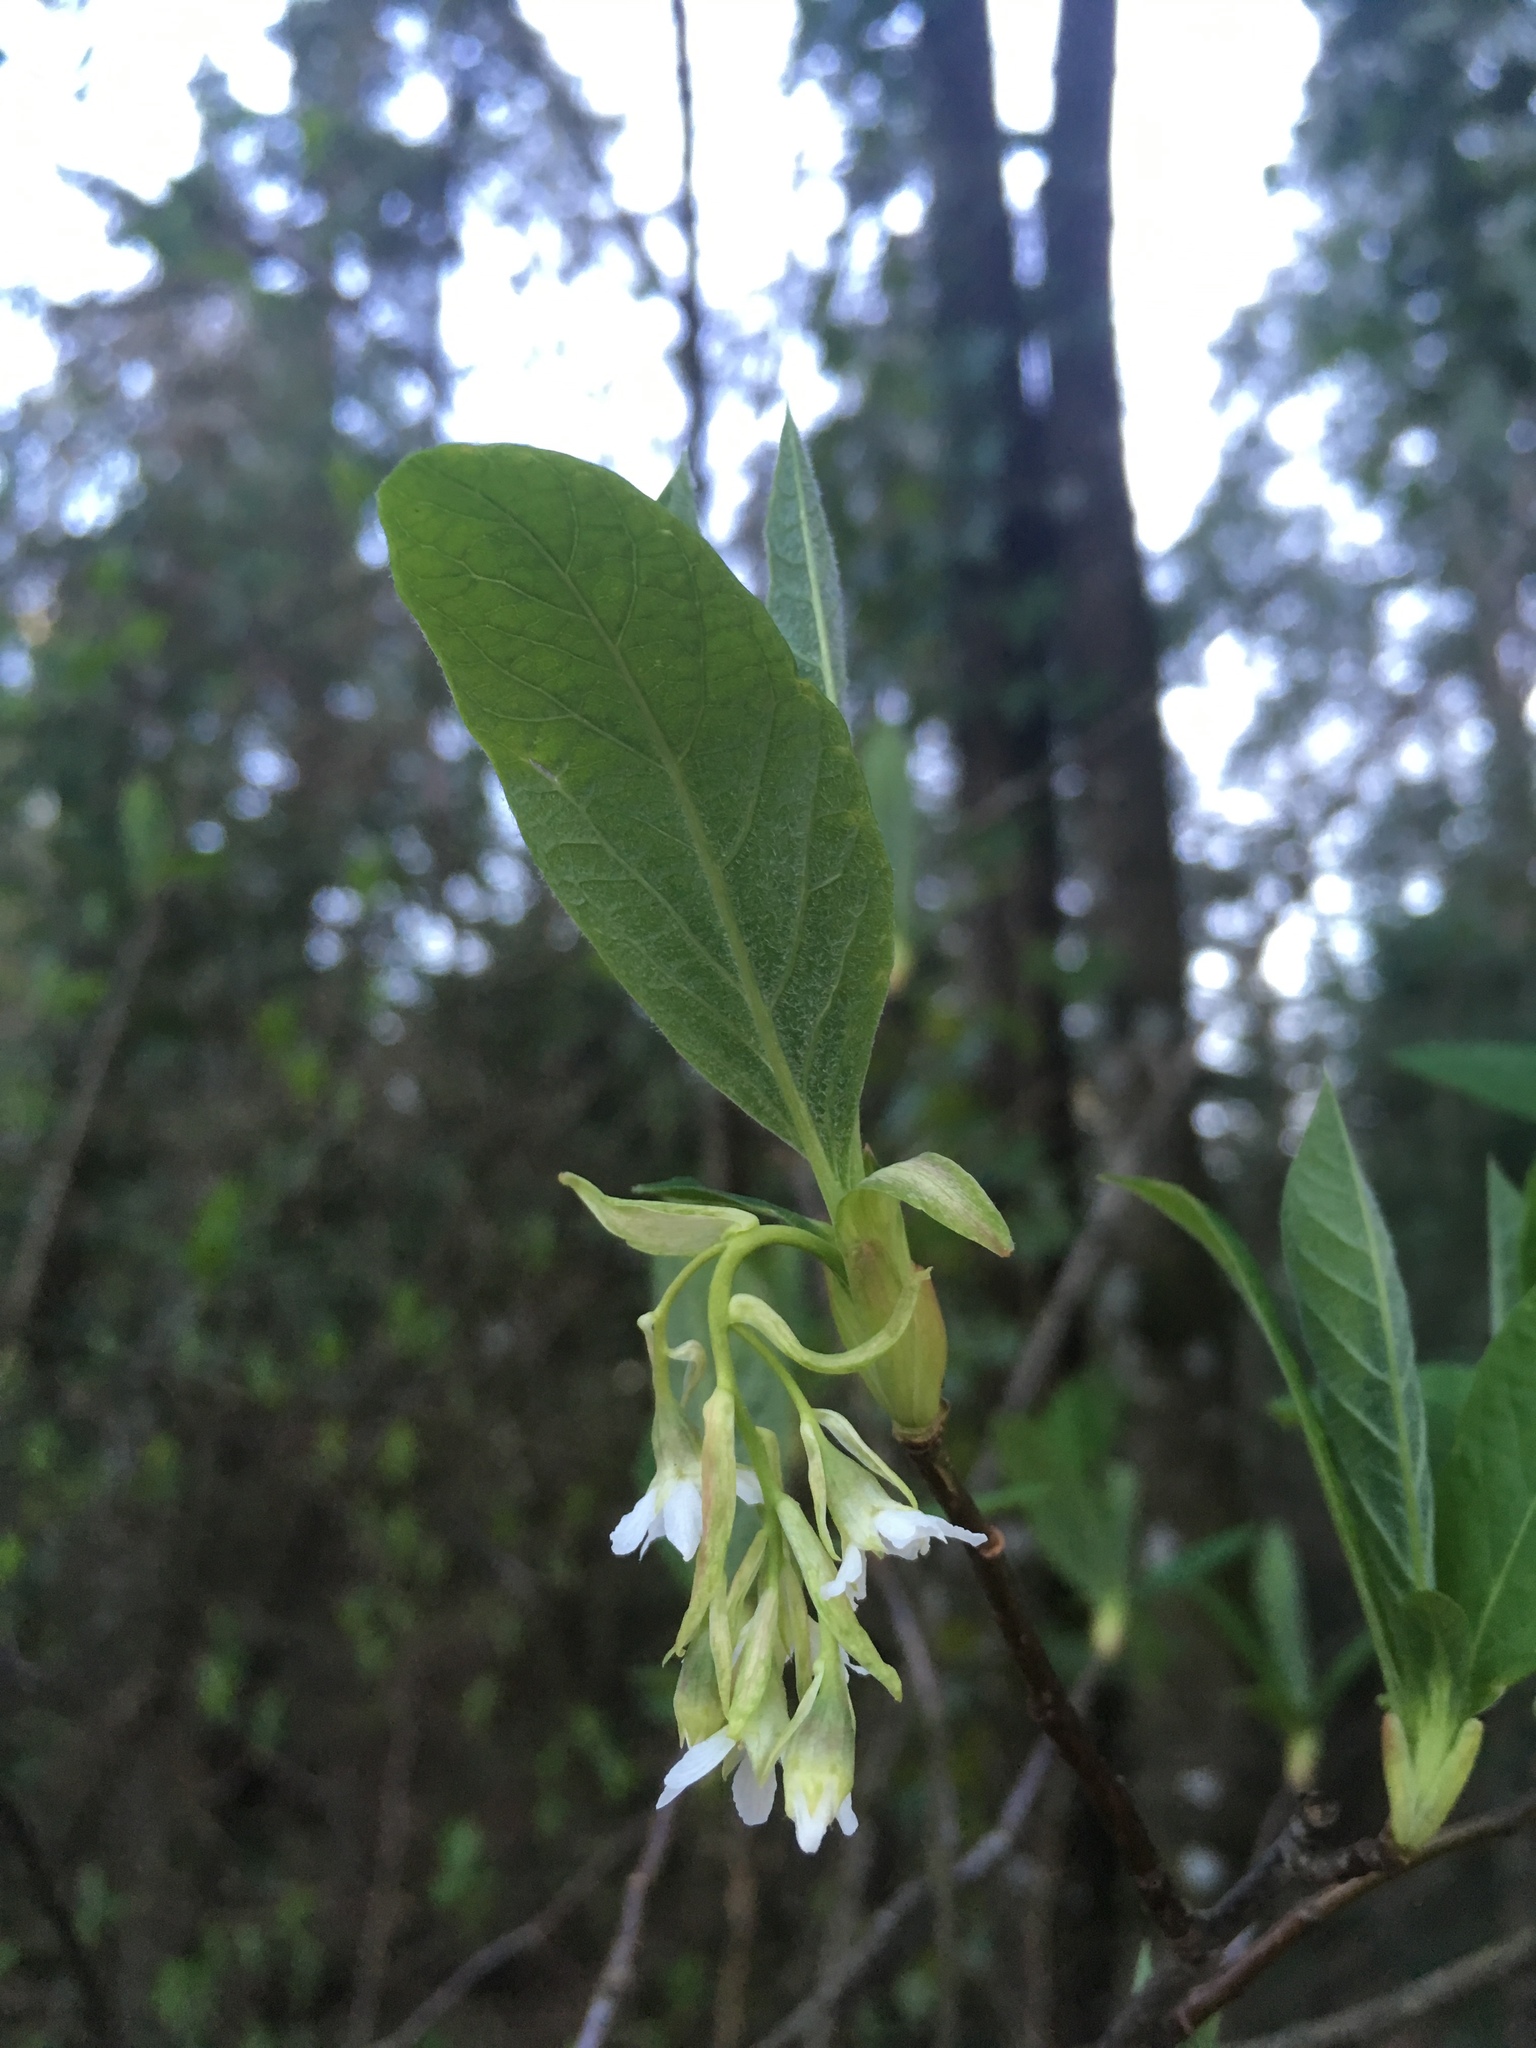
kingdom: Plantae
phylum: Tracheophyta
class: Magnoliopsida
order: Rosales
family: Rosaceae
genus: Oemleria
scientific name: Oemleria cerasiformis
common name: Osoberry
